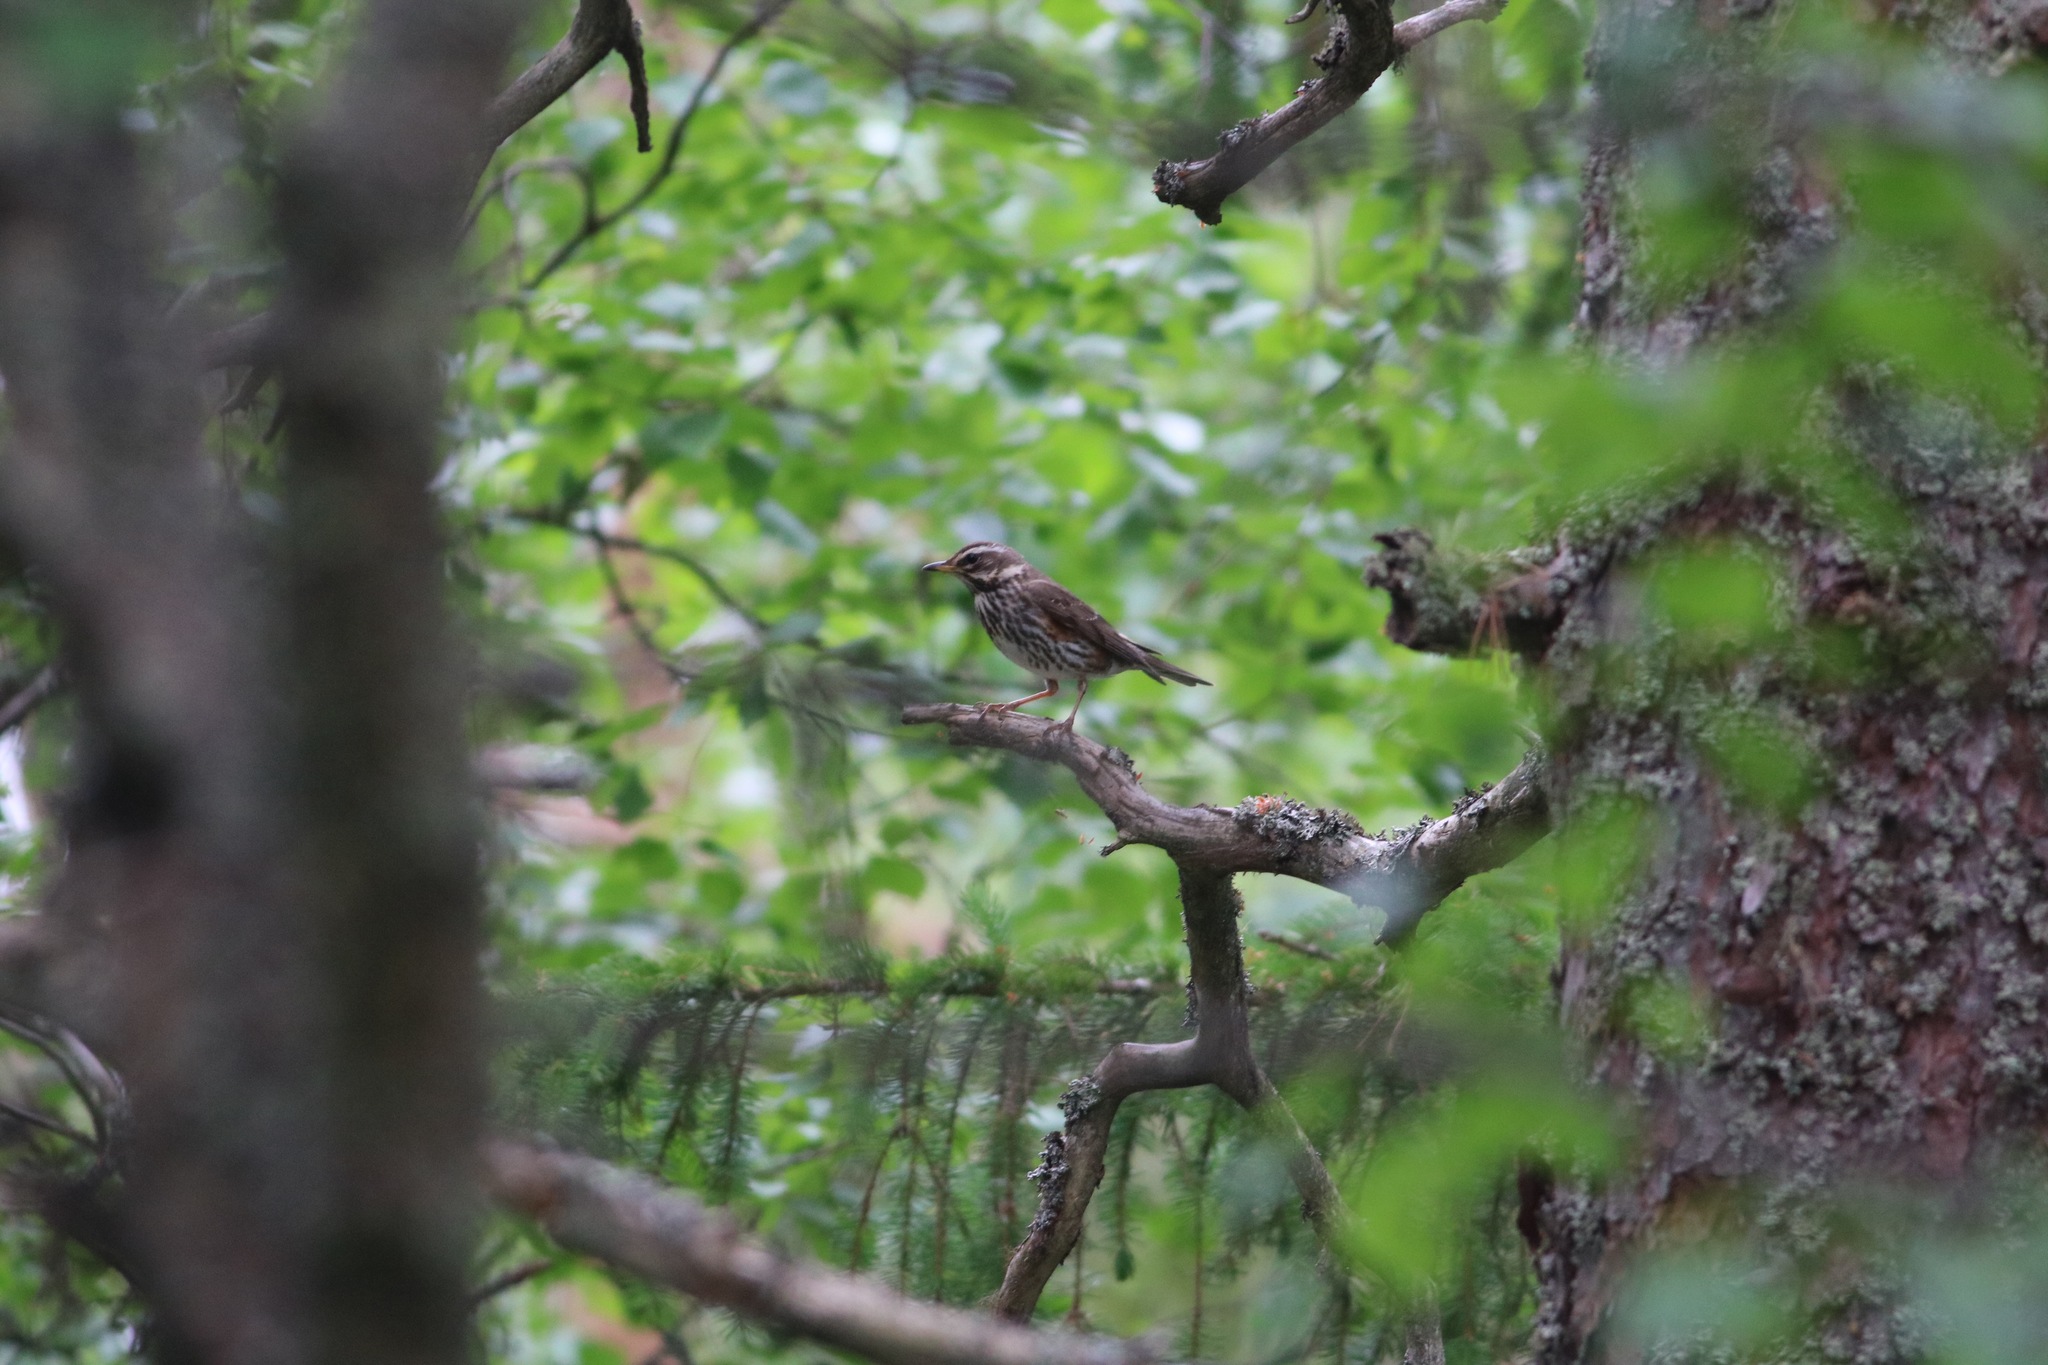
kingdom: Animalia
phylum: Chordata
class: Aves
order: Passeriformes
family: Turdidae
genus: Turdus
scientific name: Turdus iliacus
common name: Redwing
